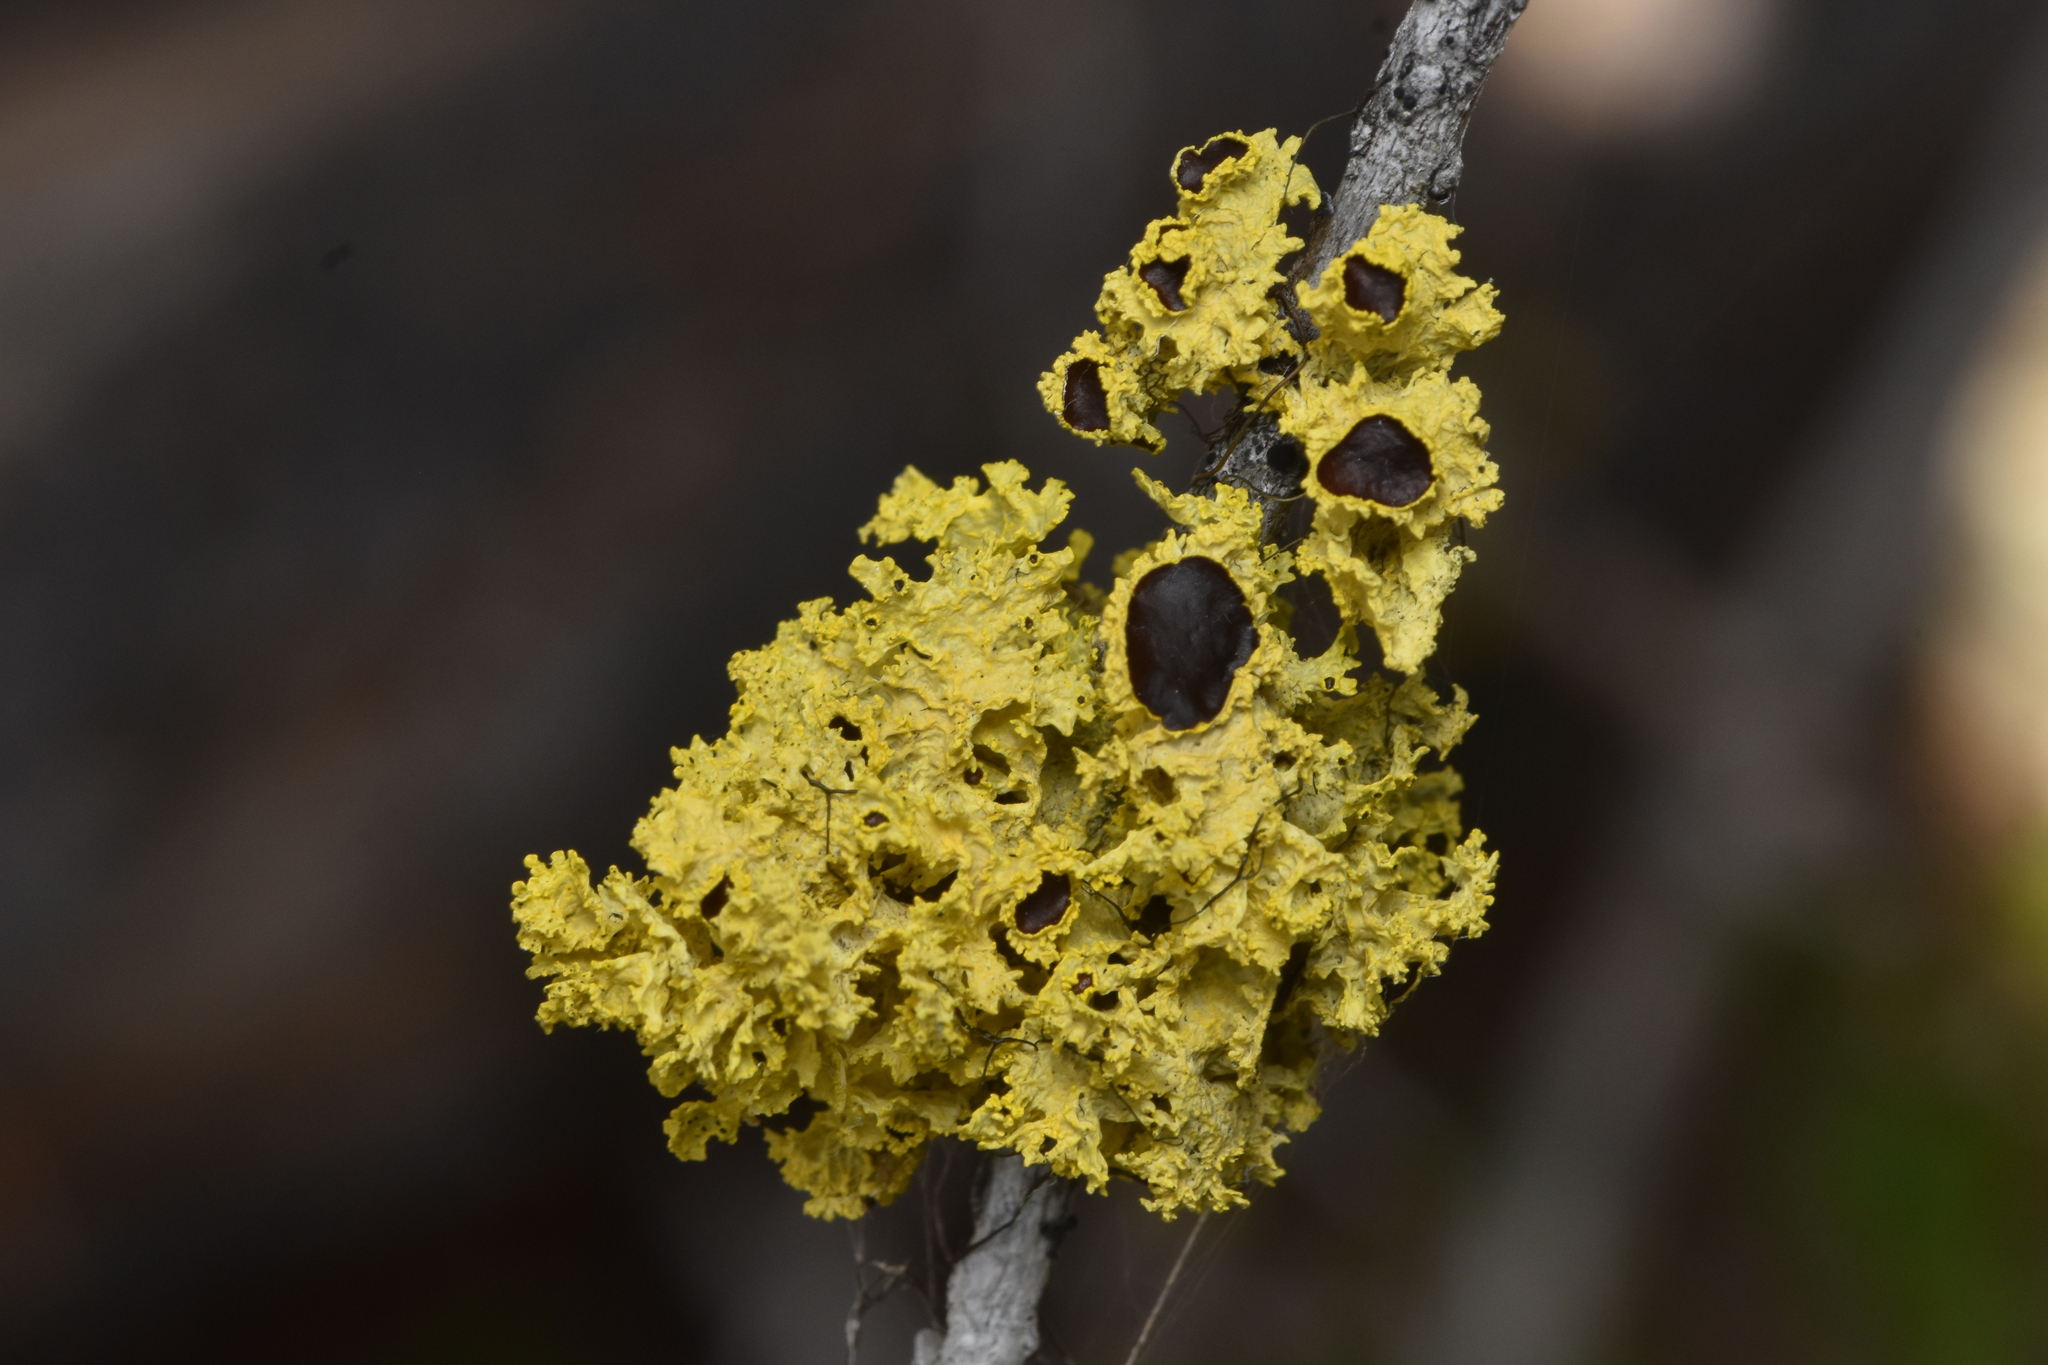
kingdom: Fungi
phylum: Ascomycota
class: Lecanoromycetes
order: Lecanorales
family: Parmeliaceae
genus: Vulpicida
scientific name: Vulpicida canadensis
